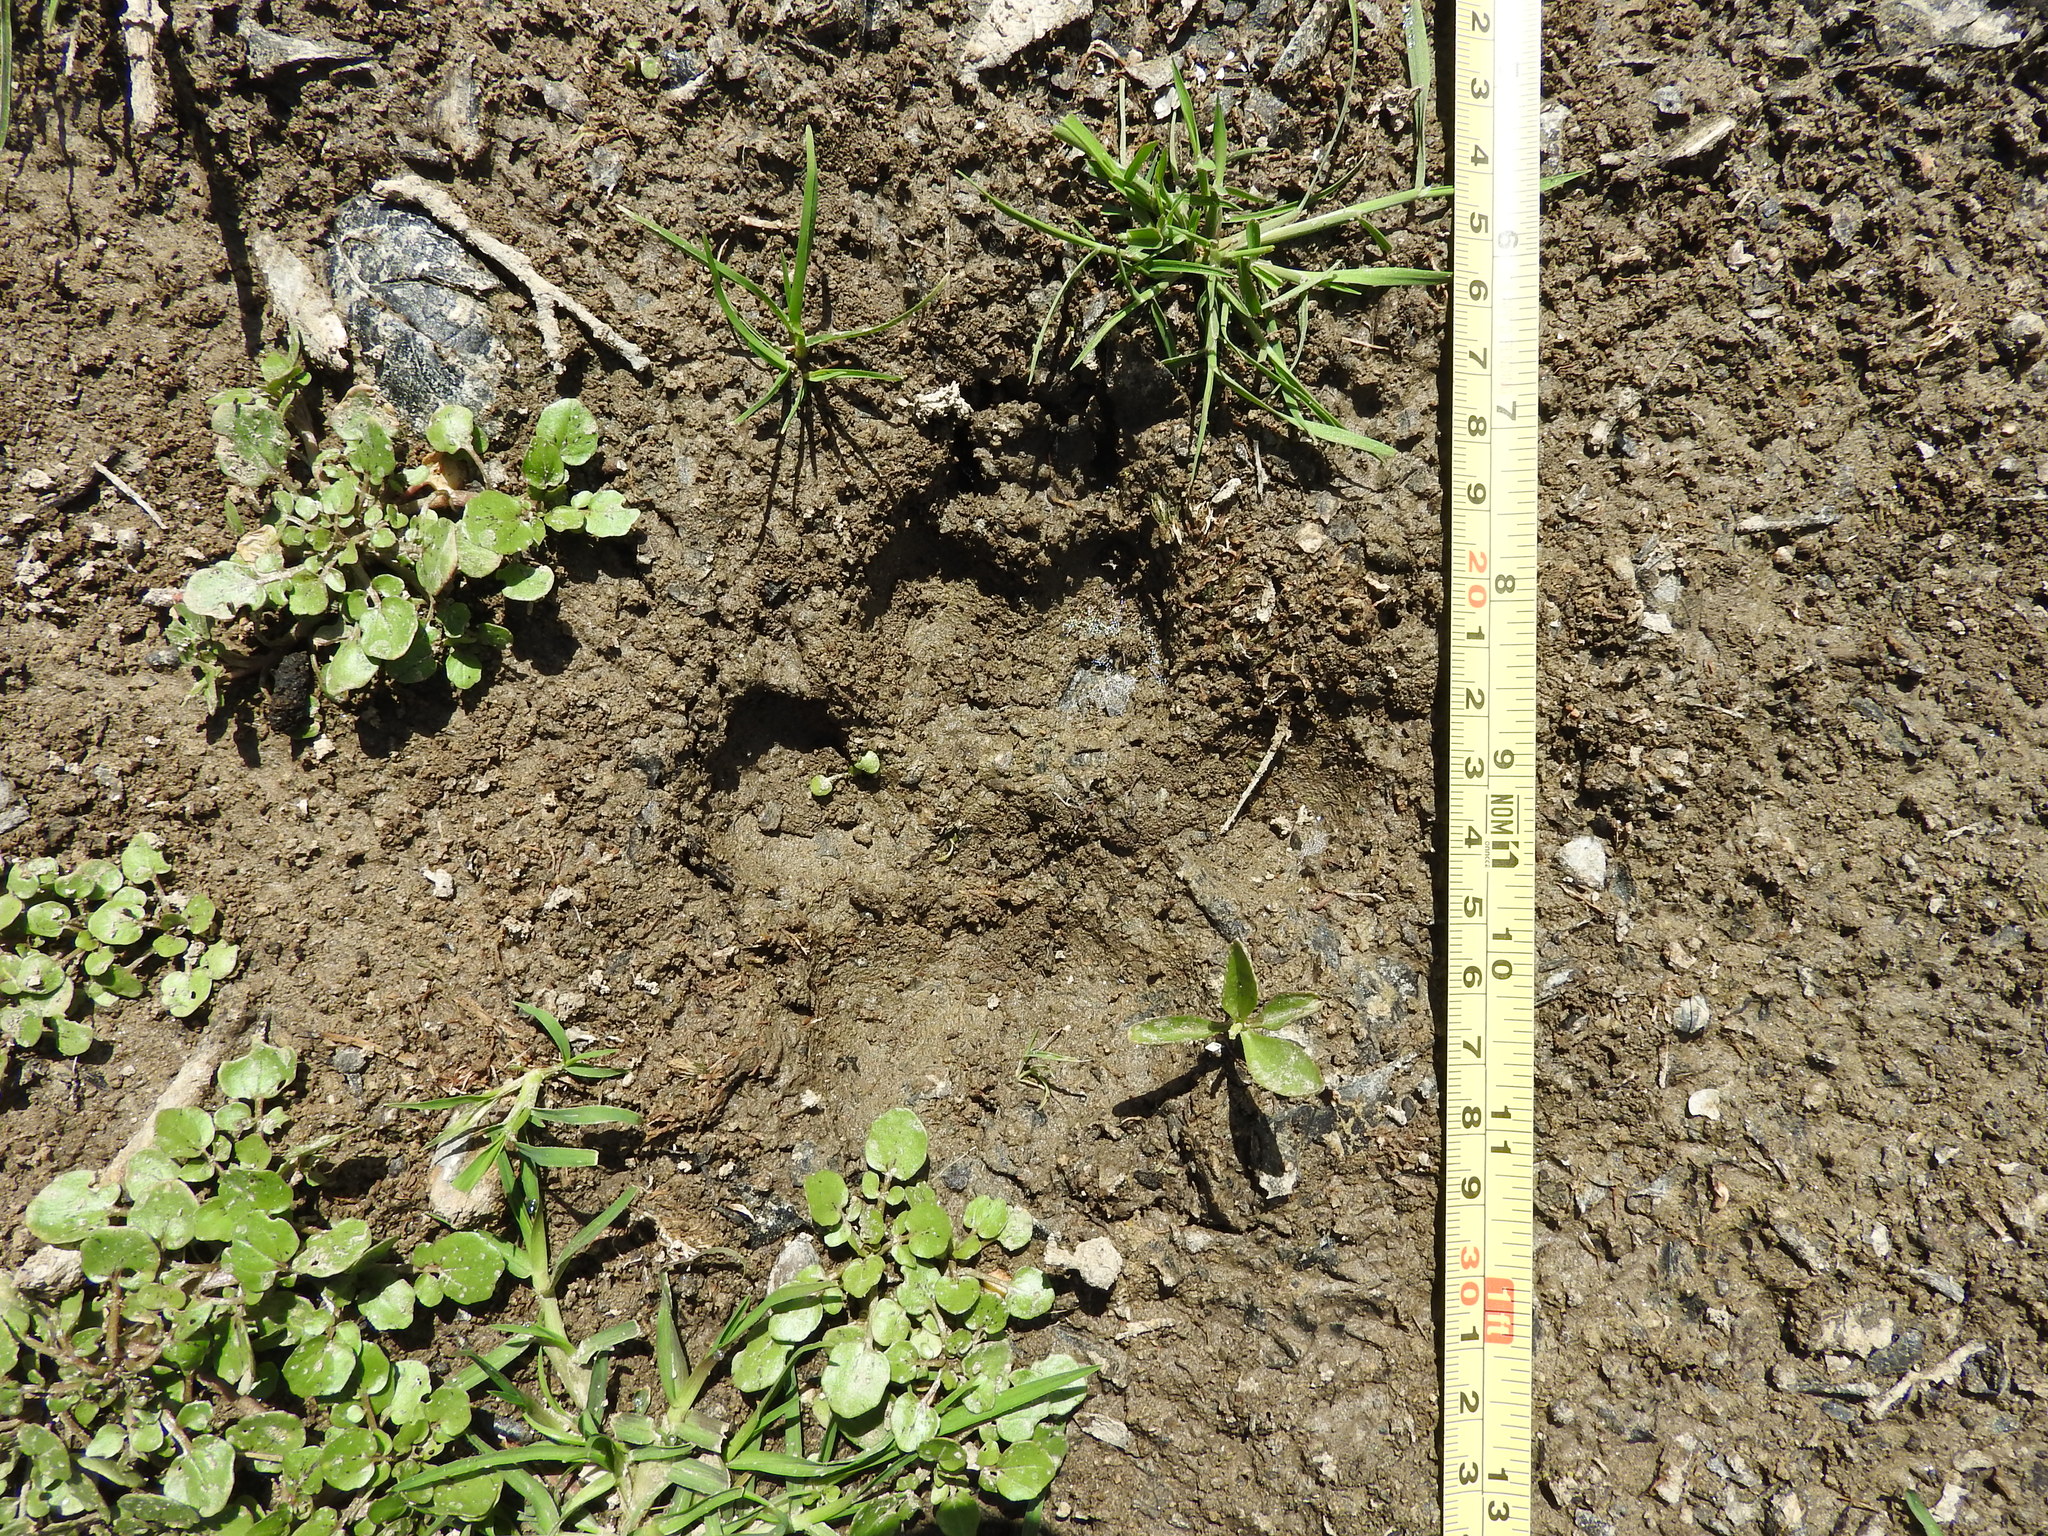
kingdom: Animalia
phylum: Chordata
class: Mammalia
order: Carnivora
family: Canidae
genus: Canis
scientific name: Canis latrans
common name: Coyote
